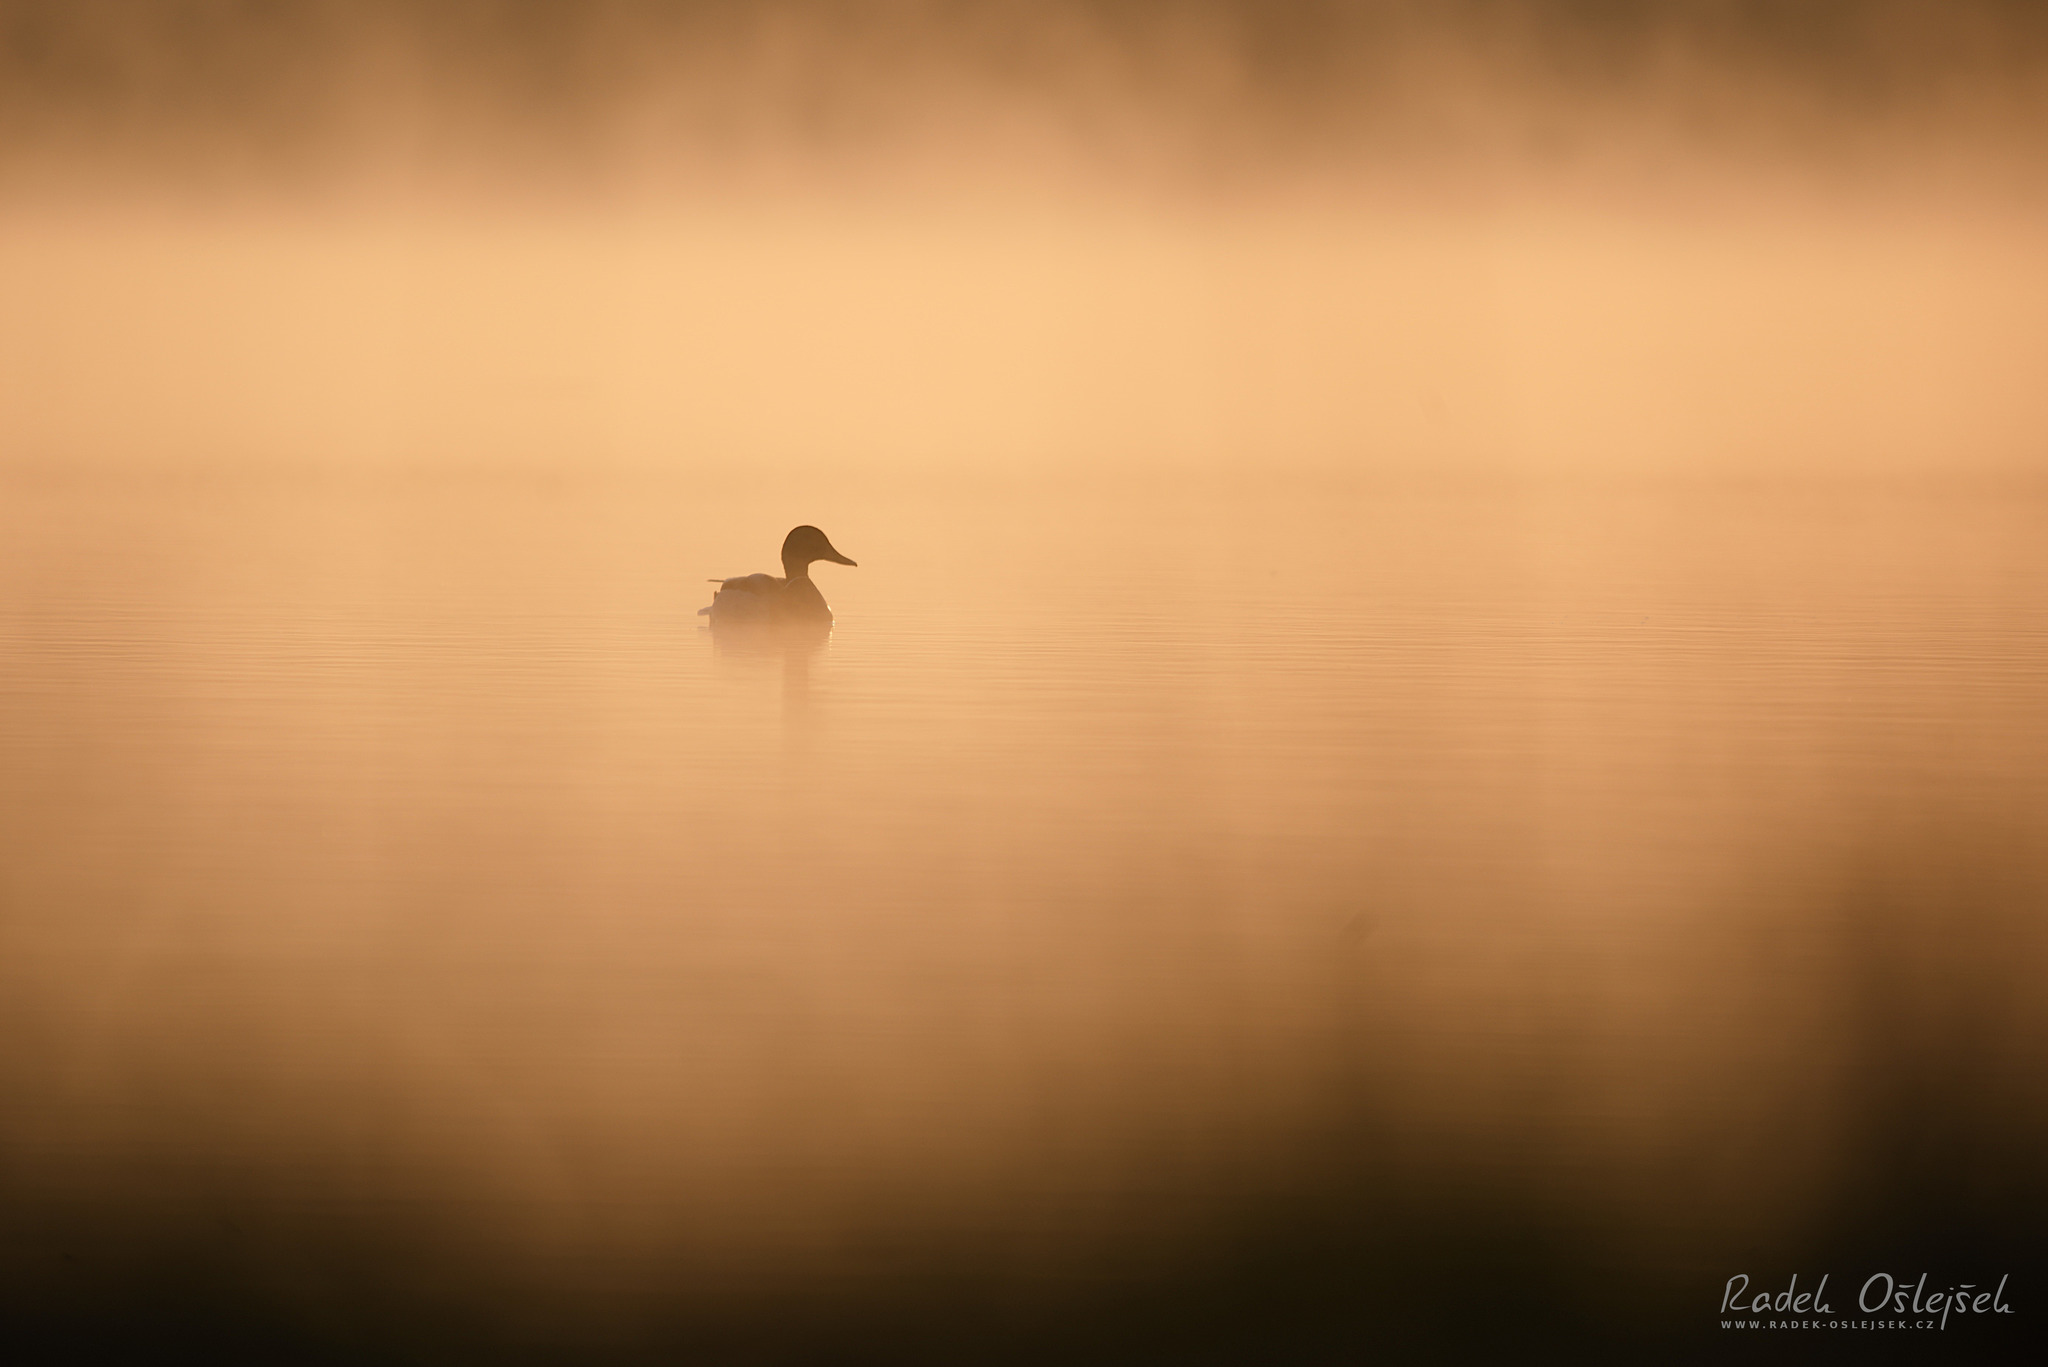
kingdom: Animalia
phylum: Chordata
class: Aves
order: Anseriformes
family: Anatidae
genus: Anas
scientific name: Anas platyrhynchos
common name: Mallard
